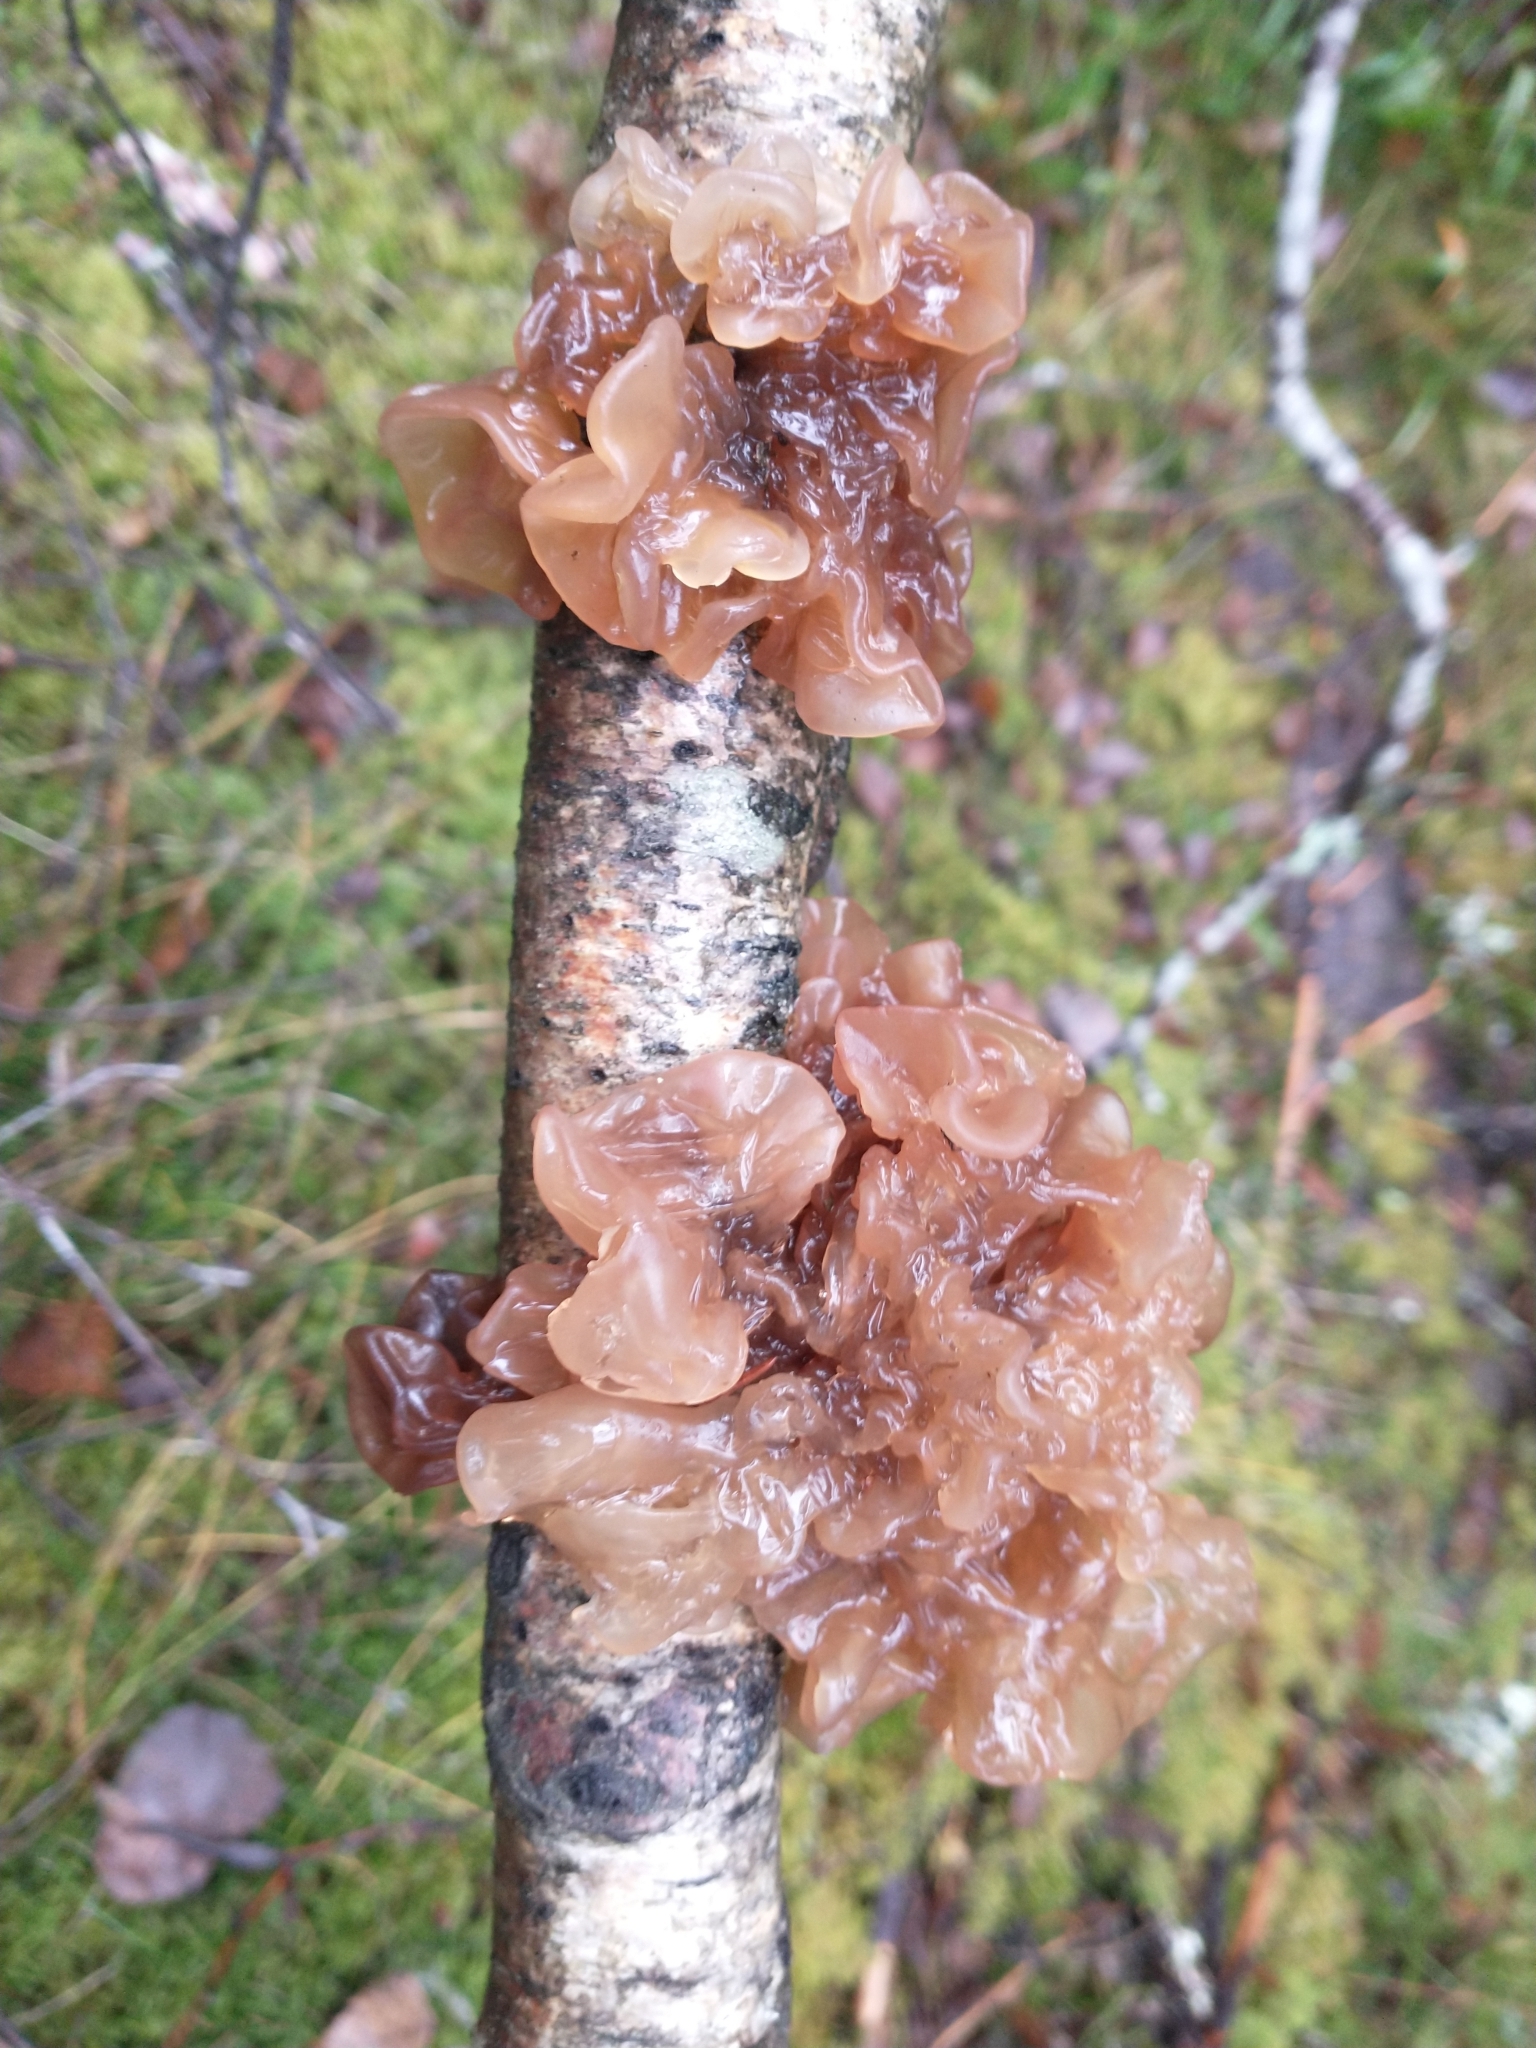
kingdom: Fungi
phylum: Basidiomycota
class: Tremellomycetes
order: Tremellales
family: Tremellaceae
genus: Phaeotremella
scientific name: Phaeotremella frondosa
